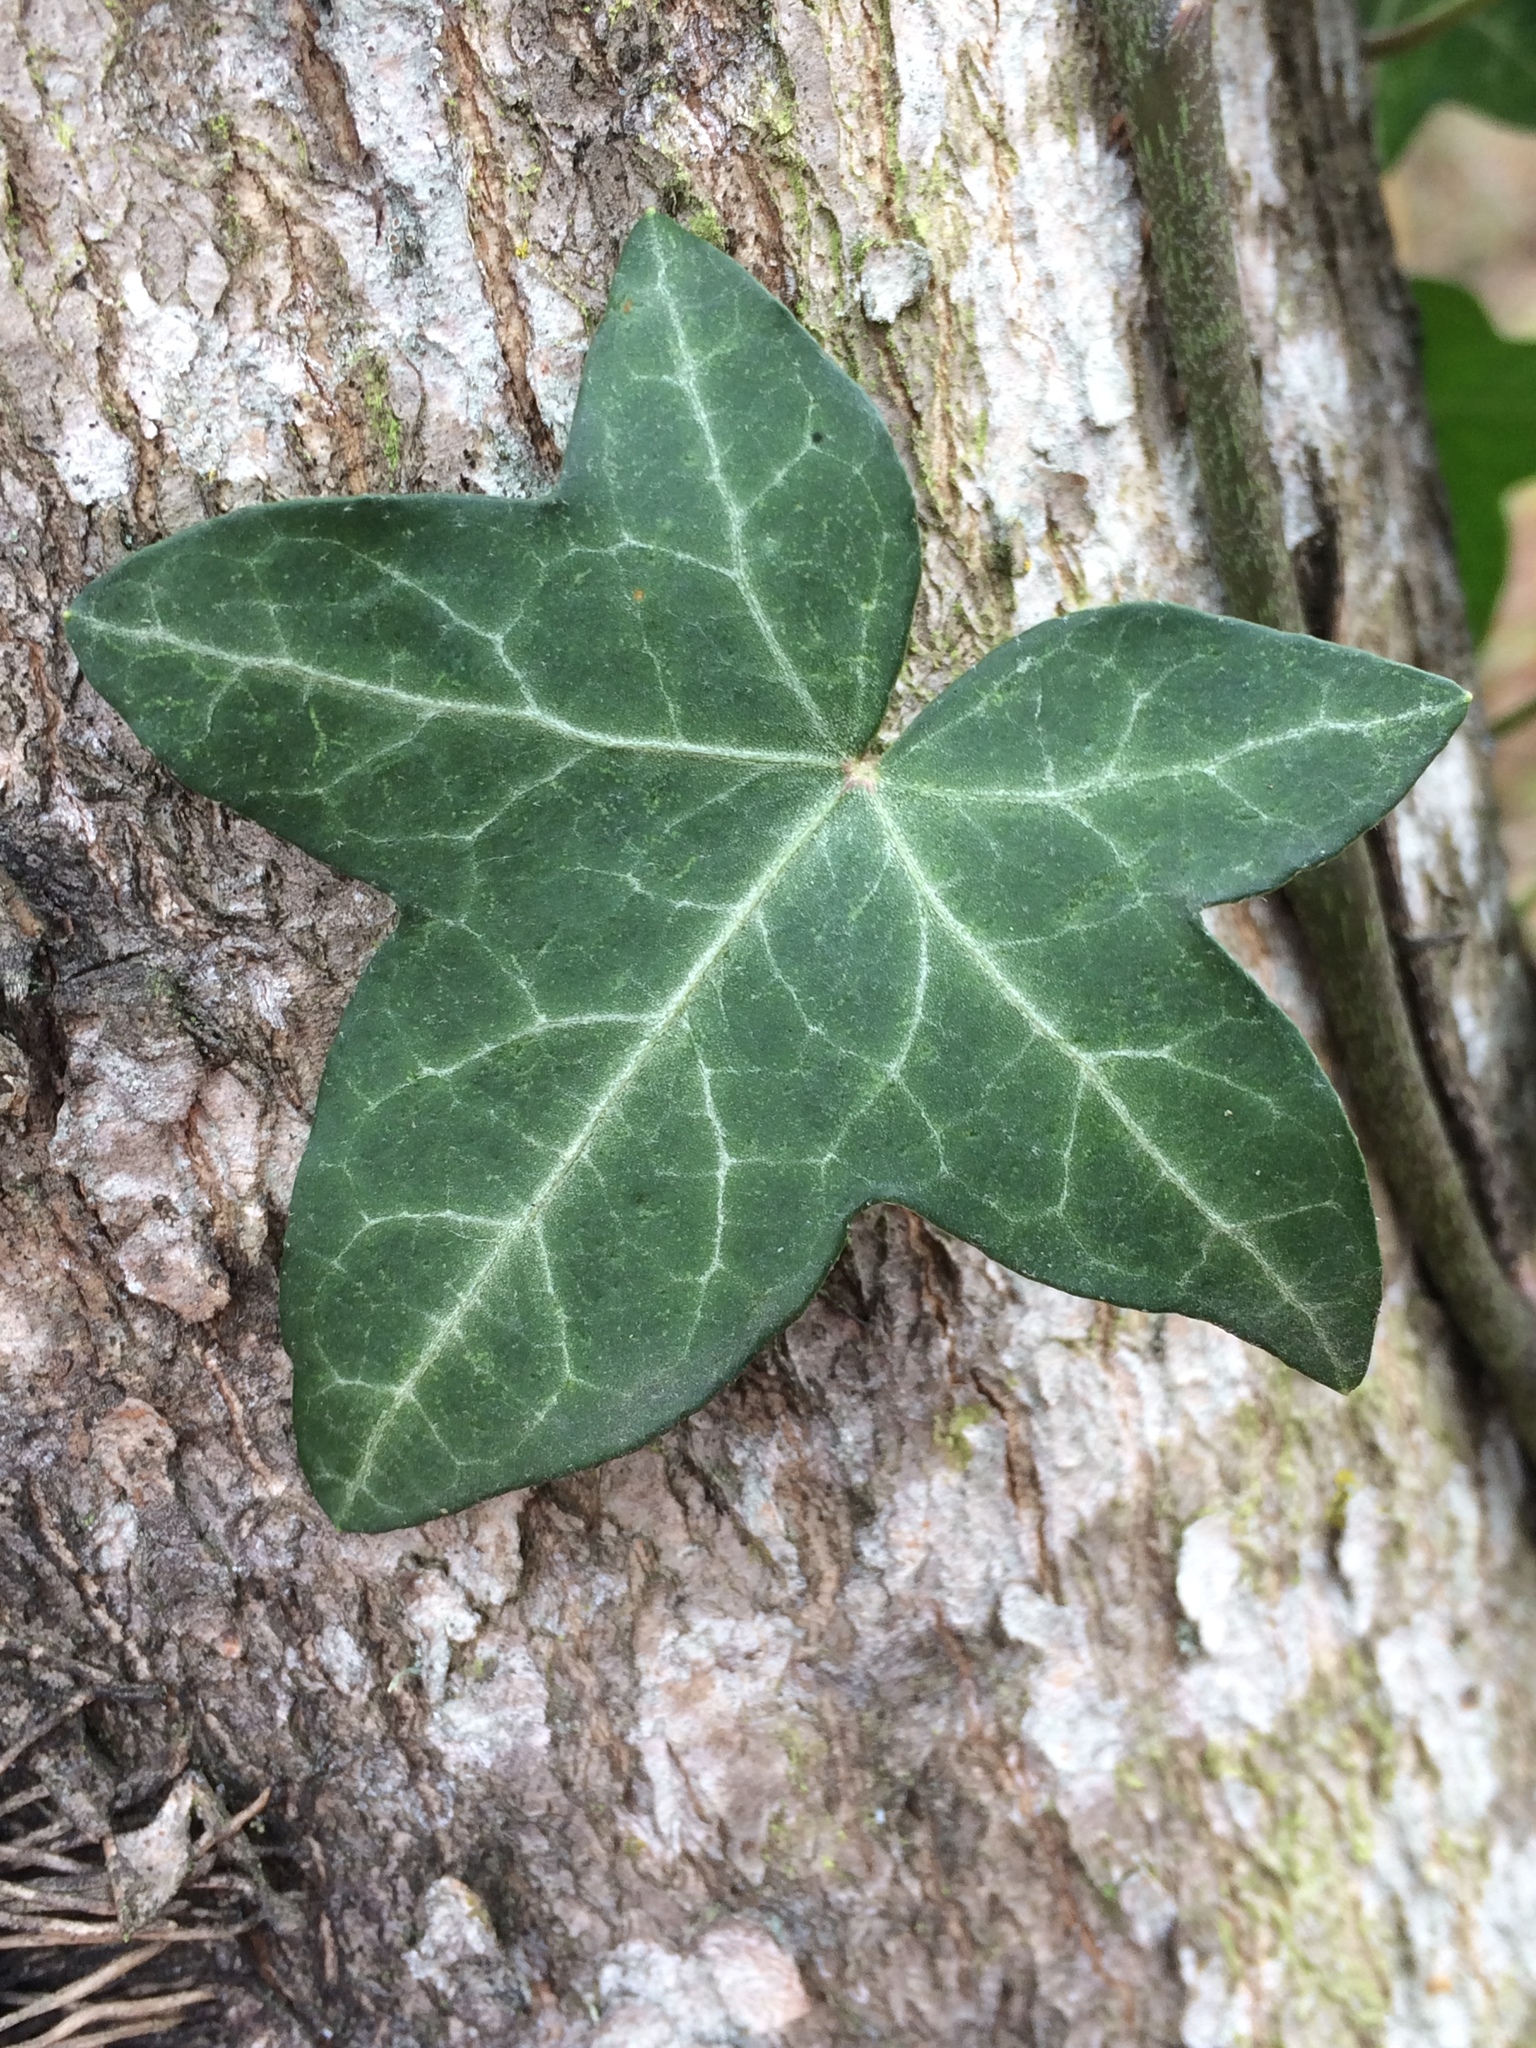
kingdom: Plantae
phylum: Tracheophyta
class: Magnoliopsida
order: Apiales
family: Araliaceae
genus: Hedera
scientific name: Hedera helix
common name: Ivy
